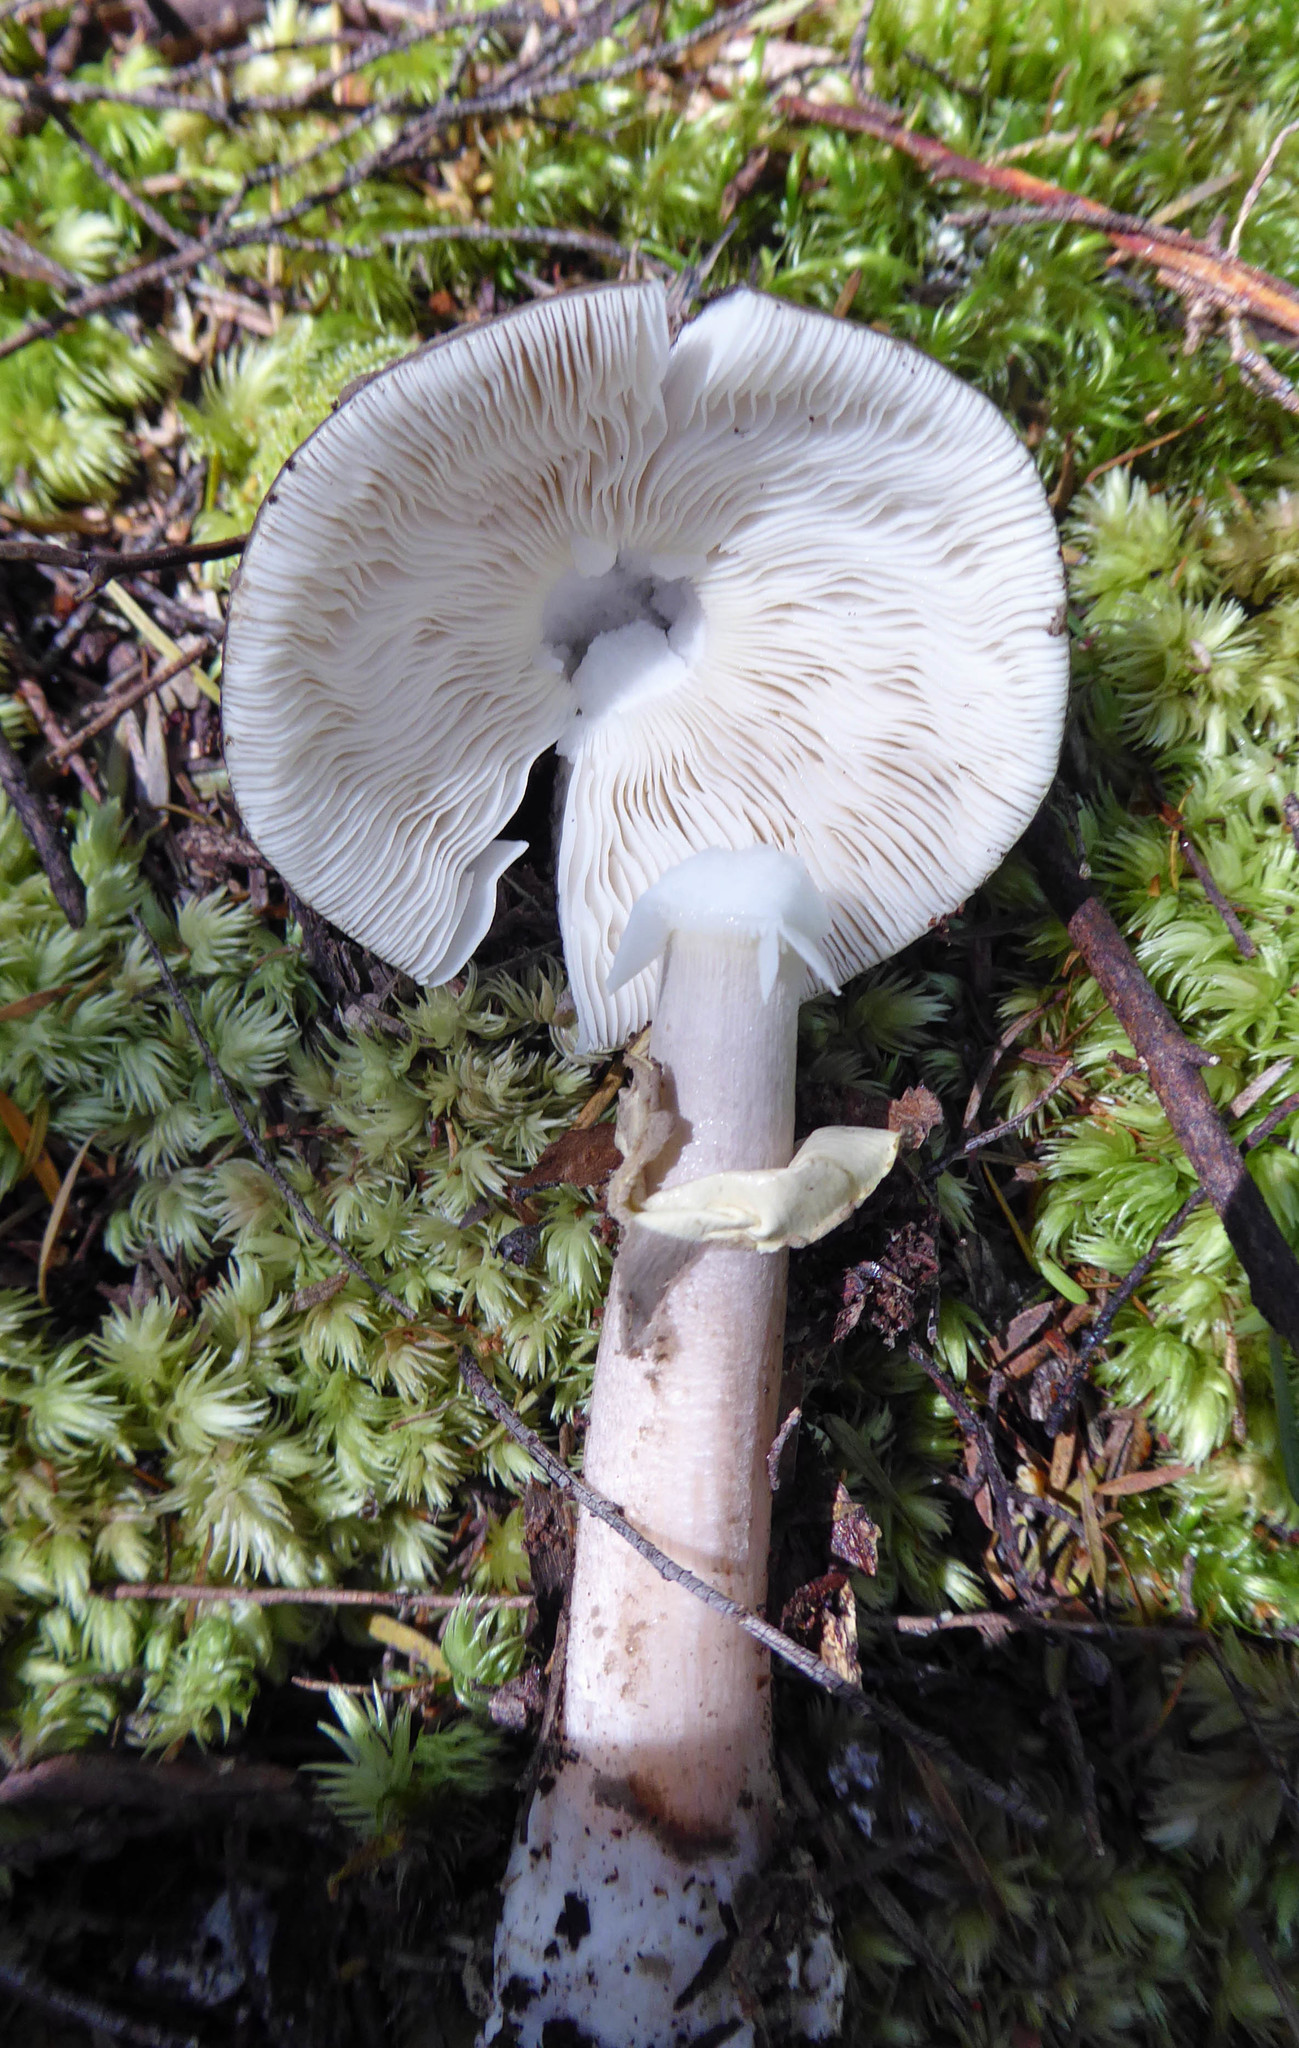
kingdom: Fungi
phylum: Basidiomycota
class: Agaricomycetes
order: Agaricales
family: Amanitaceae
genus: Amanita
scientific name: Amanita nothofagi
